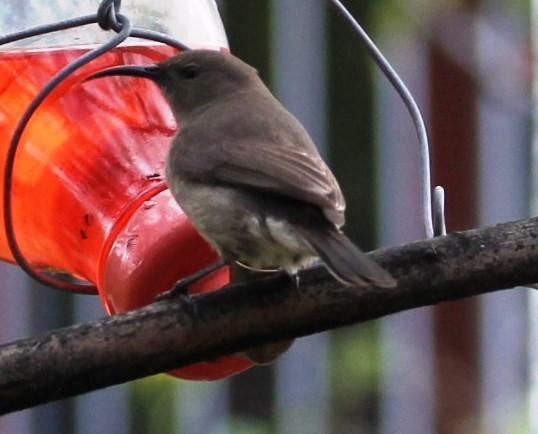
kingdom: Animalia
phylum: Chordata
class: Aves
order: Passeriformes
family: Nectariniidae
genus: Cinnyris
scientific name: Cinnyris chalybeus
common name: Southern double-collared sunbird
